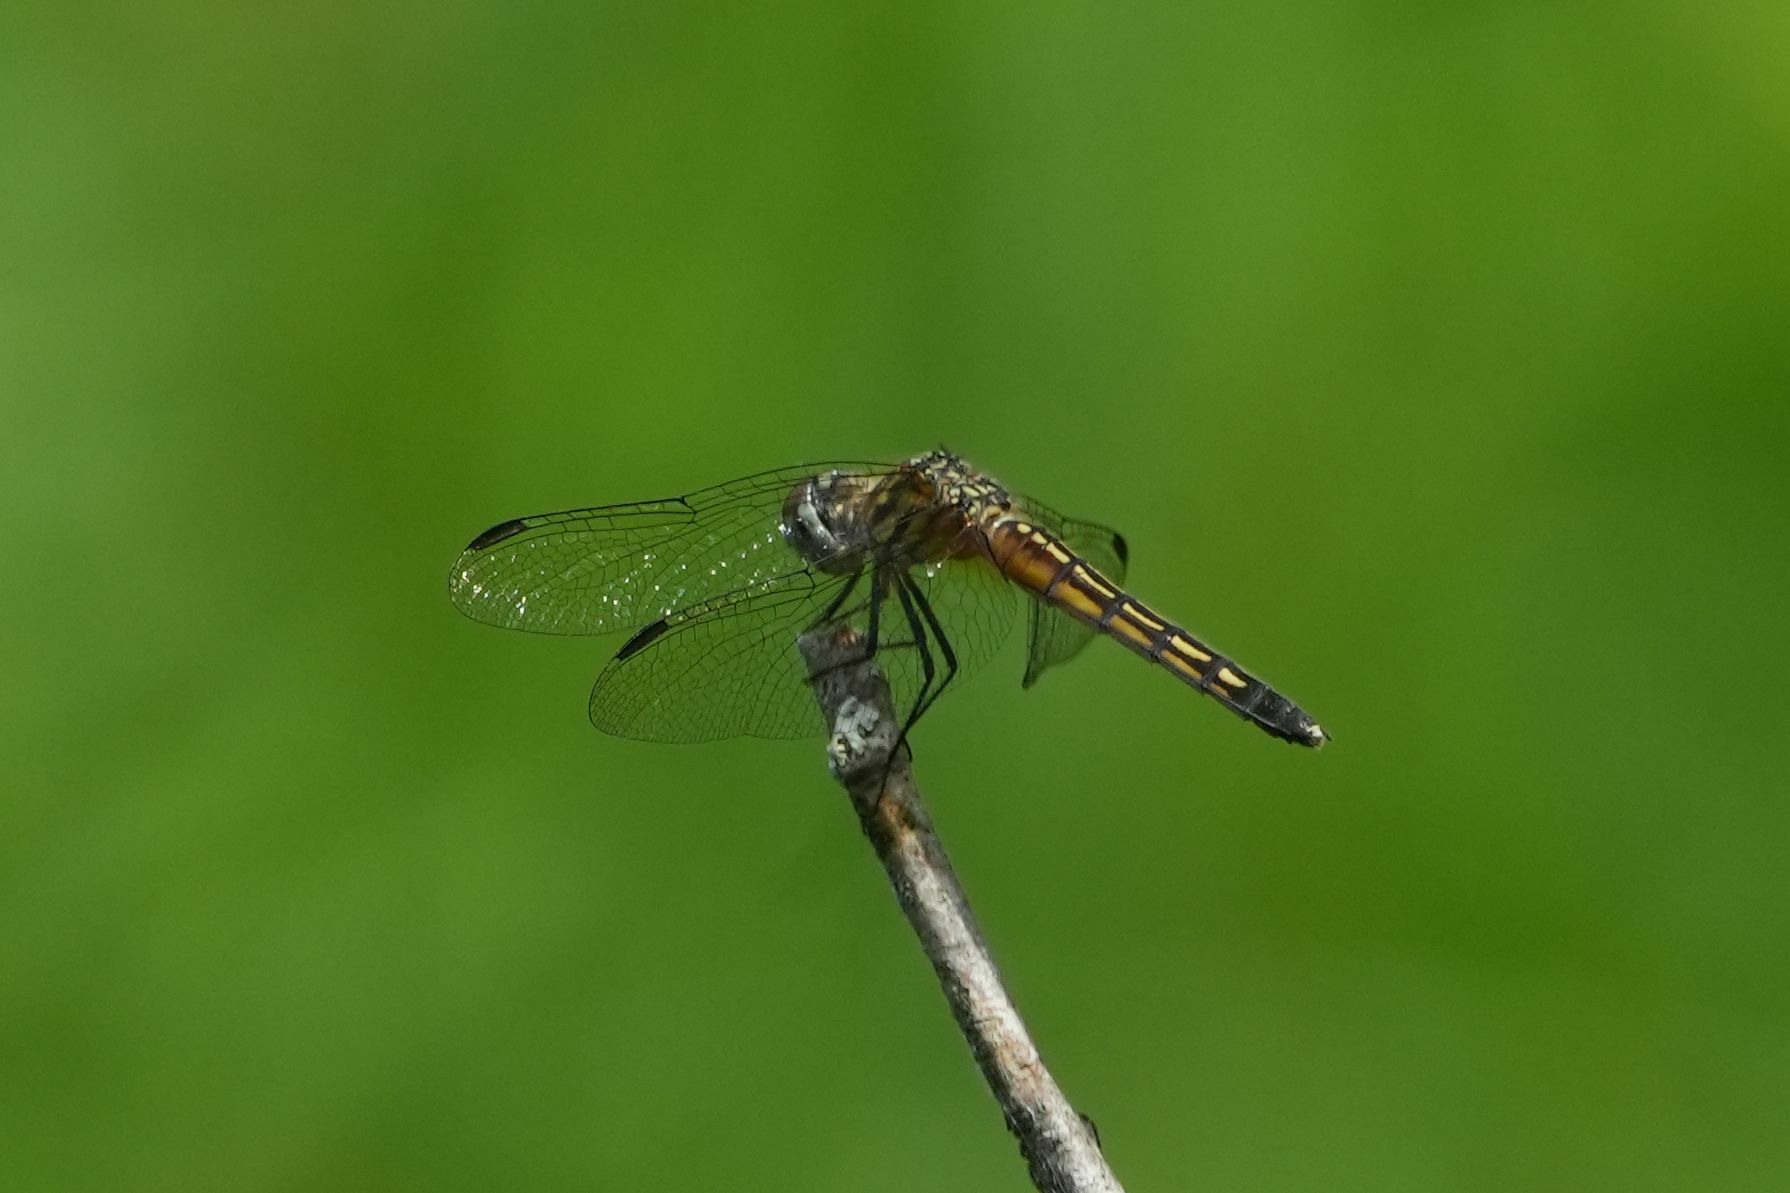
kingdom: Animalia
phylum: Arthropoda
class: Insecta
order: Odonata
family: Libellulidae
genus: Pachydiplax
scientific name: Pachydiplax longipennis
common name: Blue dasher
